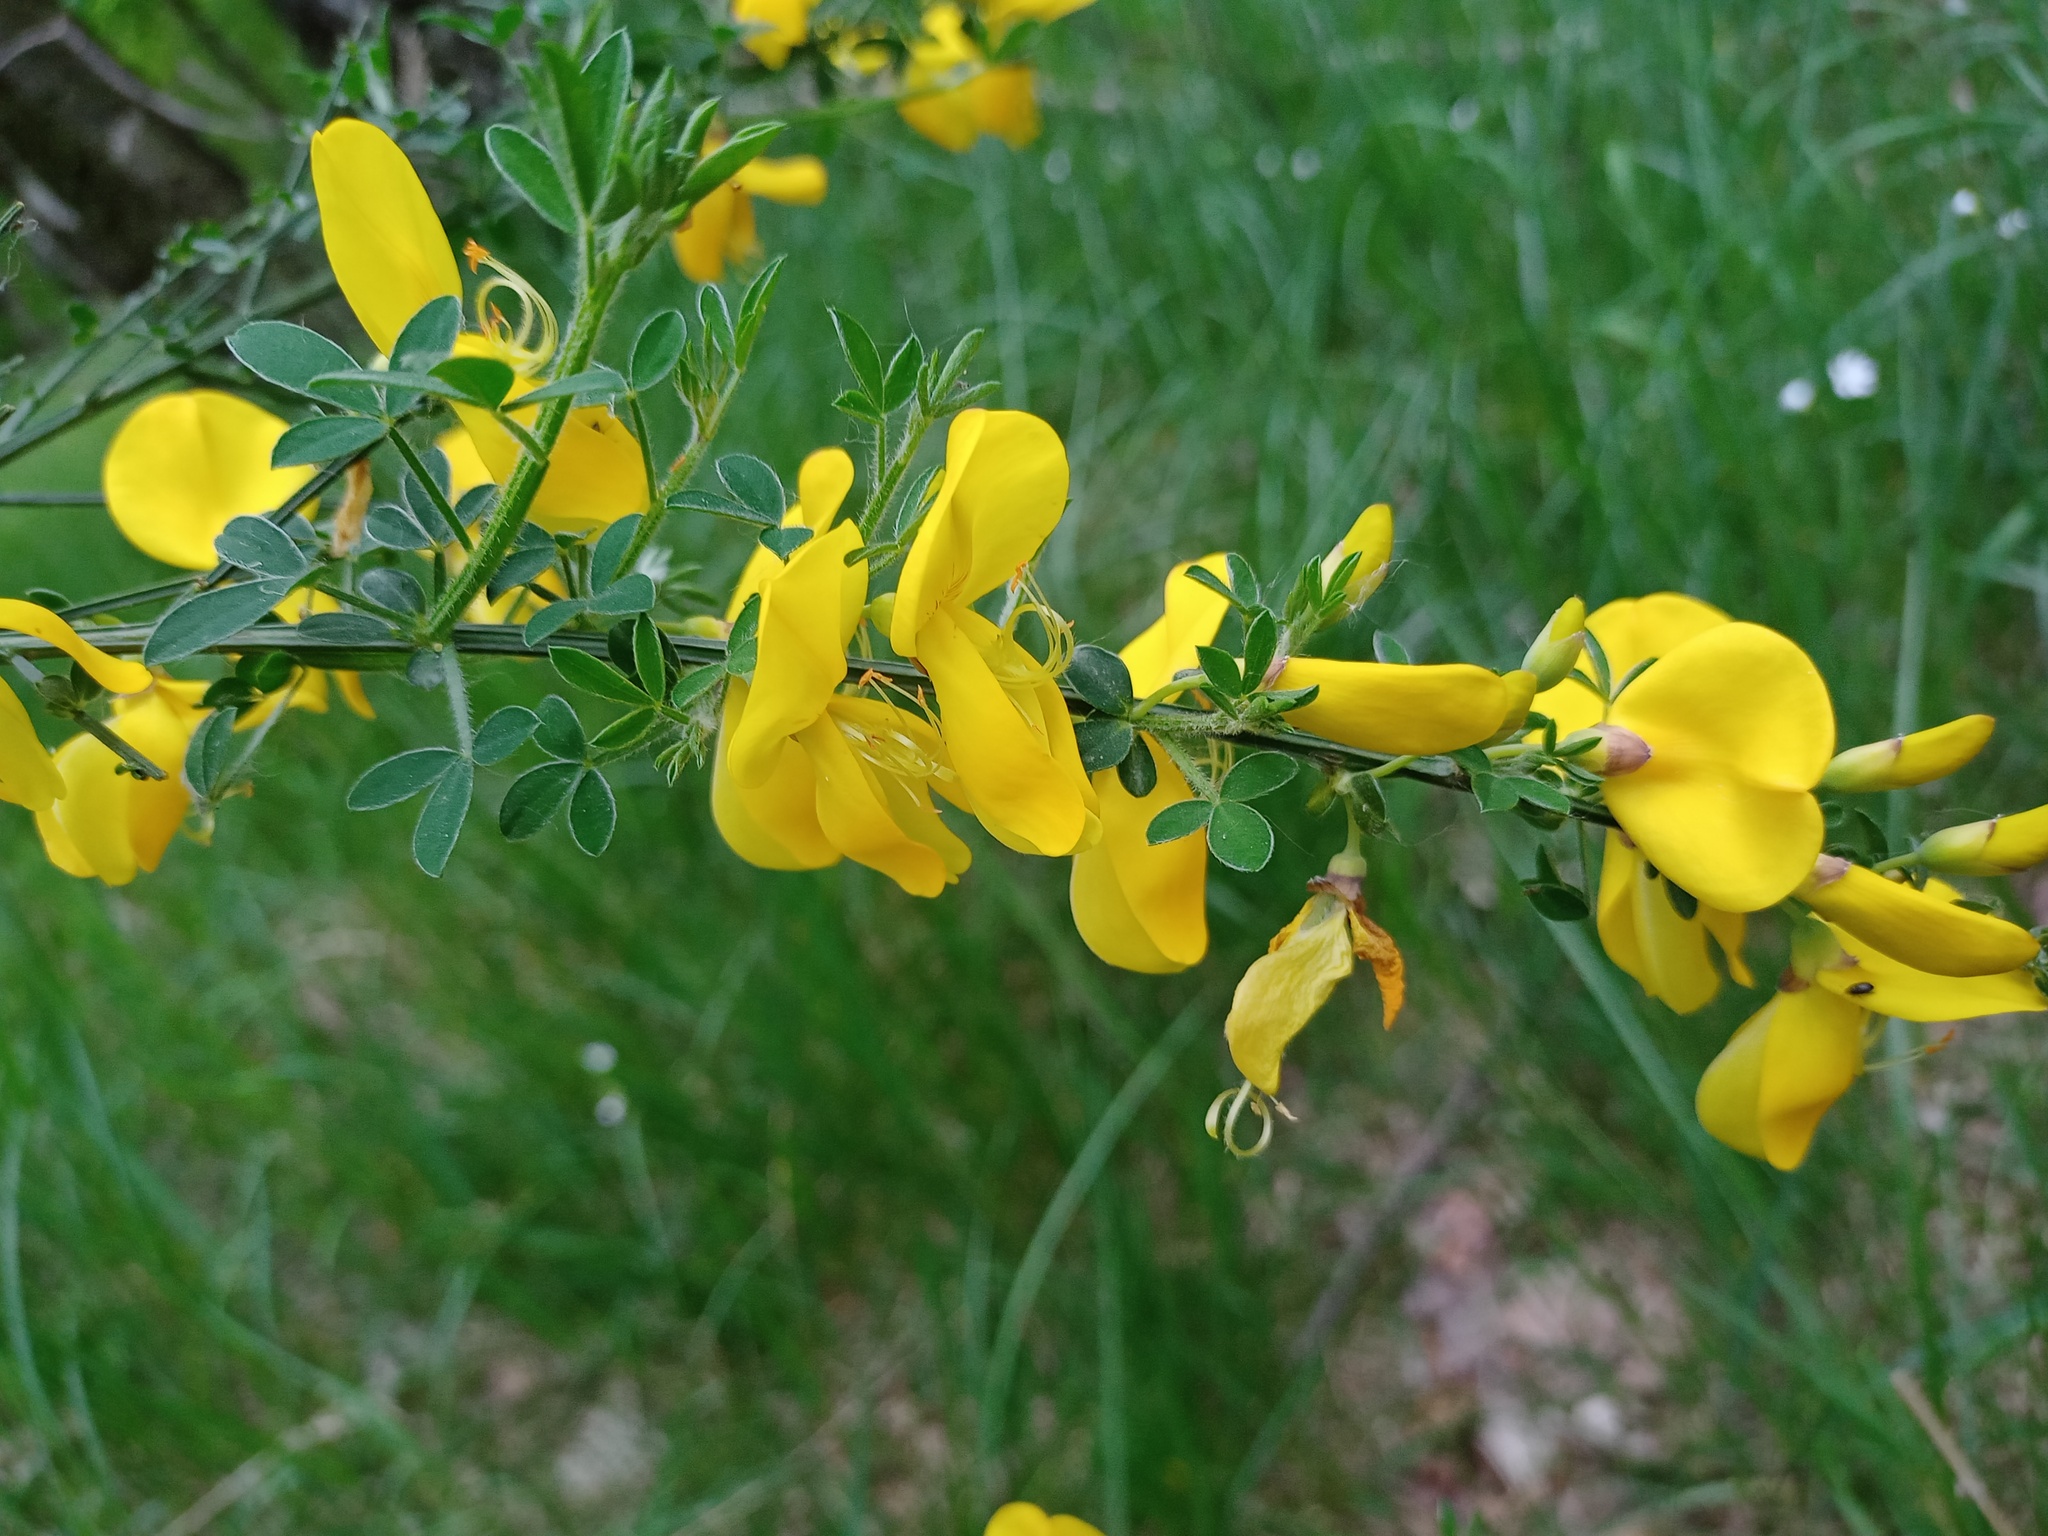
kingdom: Plantae
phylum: Tracheophyta
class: Magnoliopsida
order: Fabales
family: Fabaceae
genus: Cytisus
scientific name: Cytisus scoparius
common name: Scotch broom
